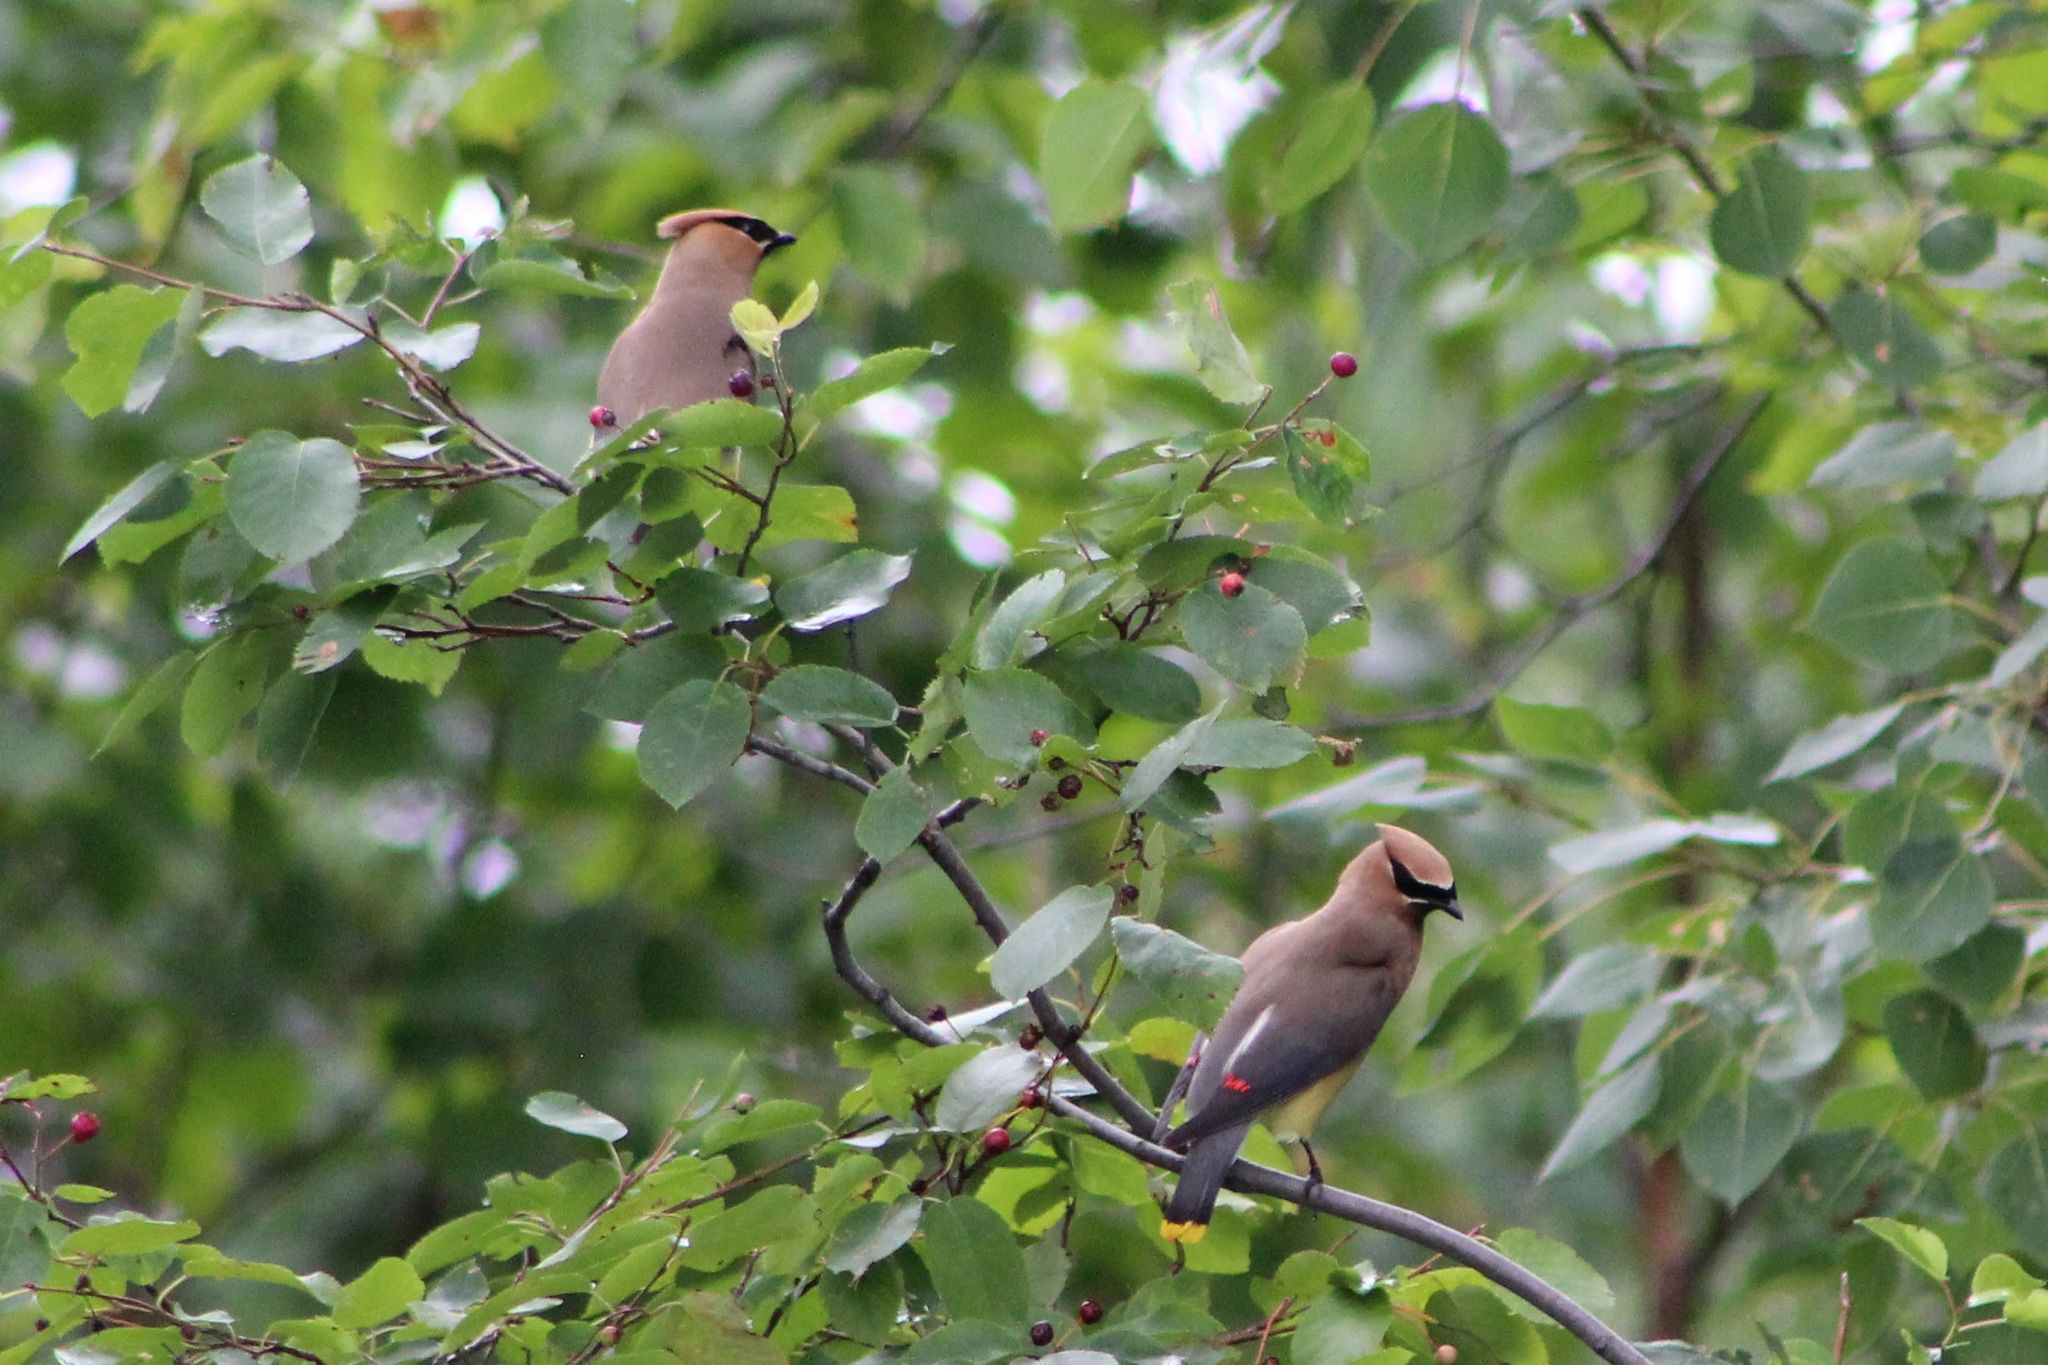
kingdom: Animalia
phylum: Chordata
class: Aves
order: Passeriformes
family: Bombycillidae
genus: Bombycilla
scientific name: Bombycilla cedrorum
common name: Cedar waxwing
